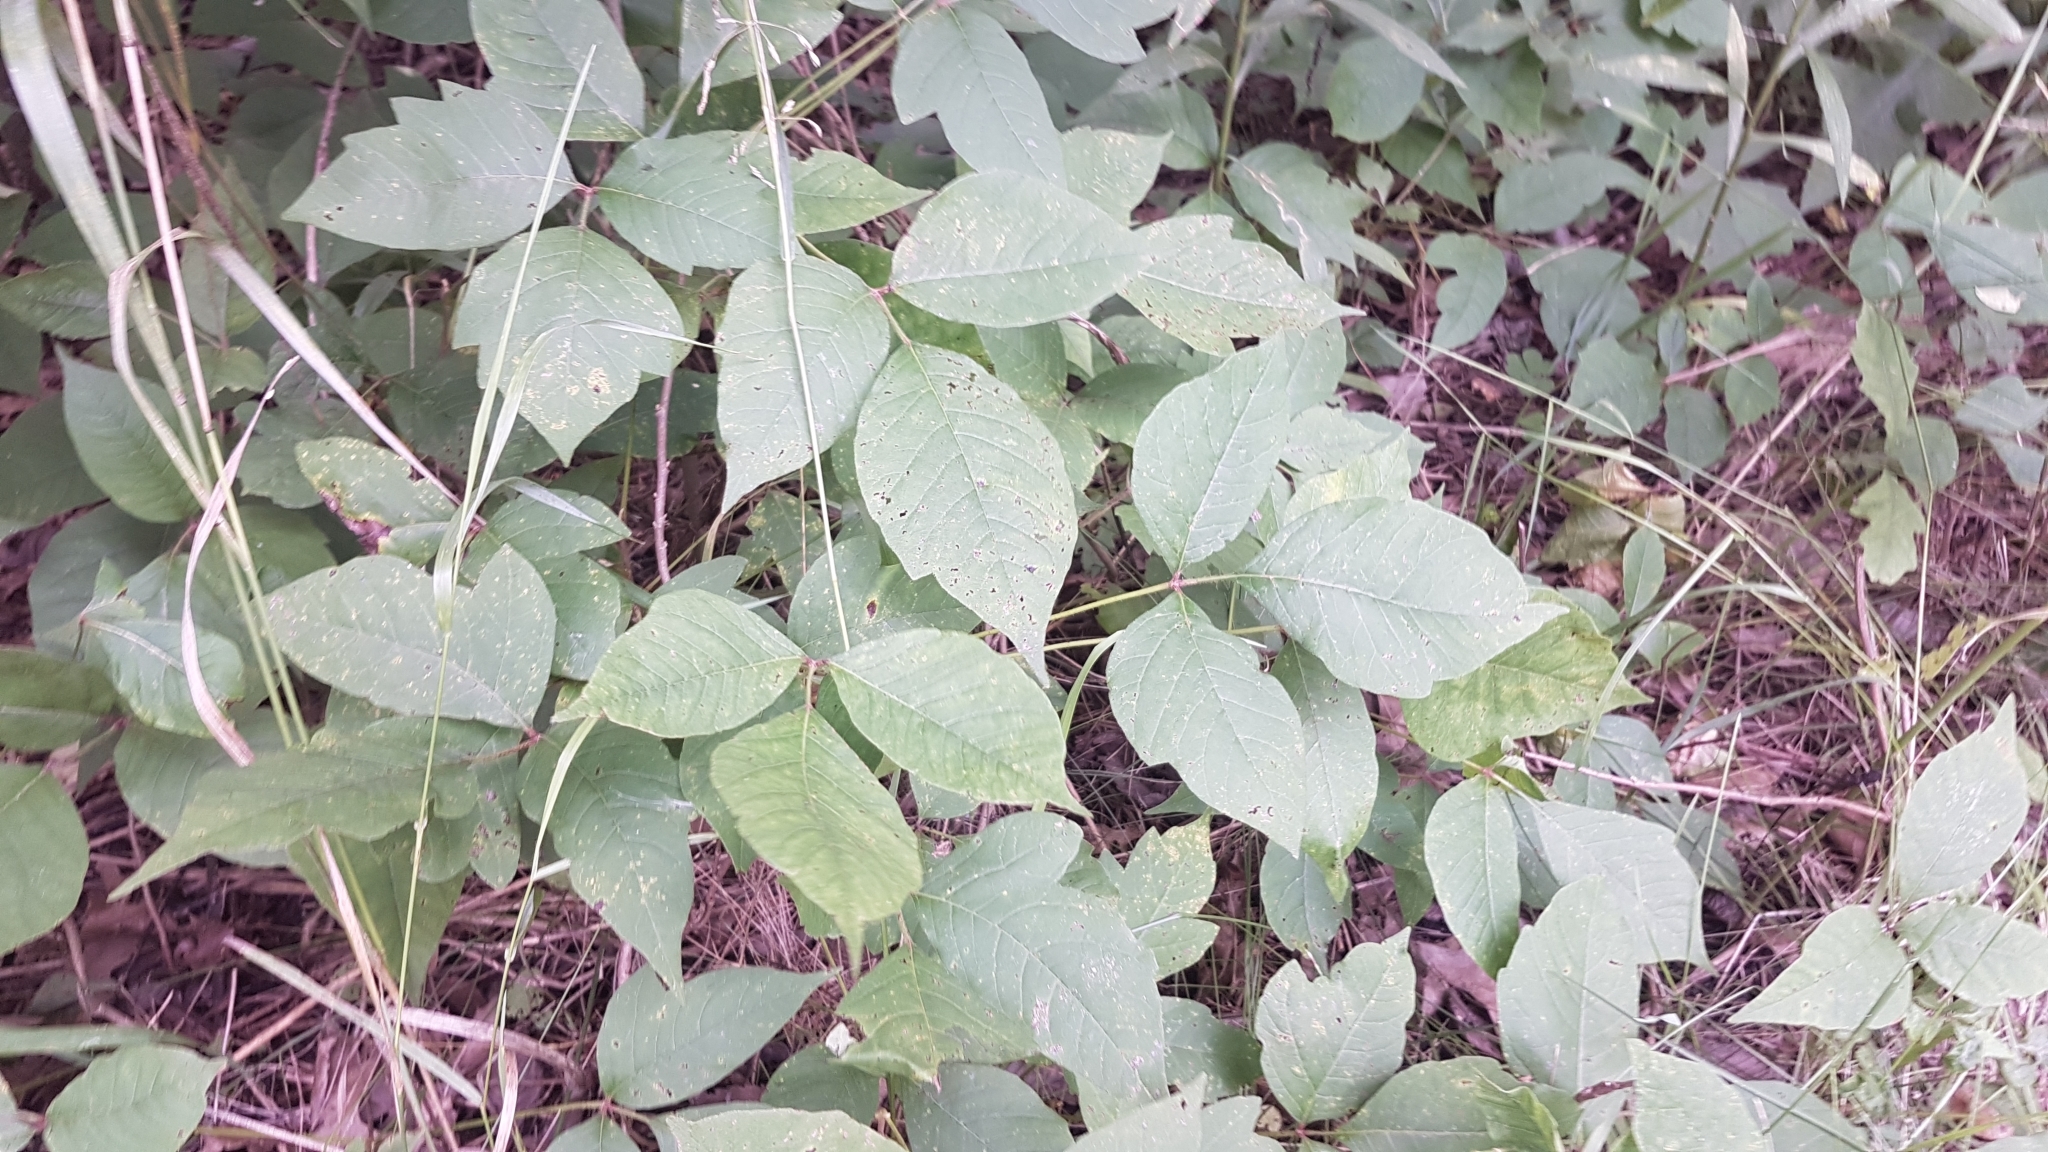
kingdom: Plantae
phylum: Tracheophyta
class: Magnoliopsida
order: Sapindales
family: Anacardiaceae
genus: Toxicodendron
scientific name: Toxicodendron radicans
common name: Poison ivy
